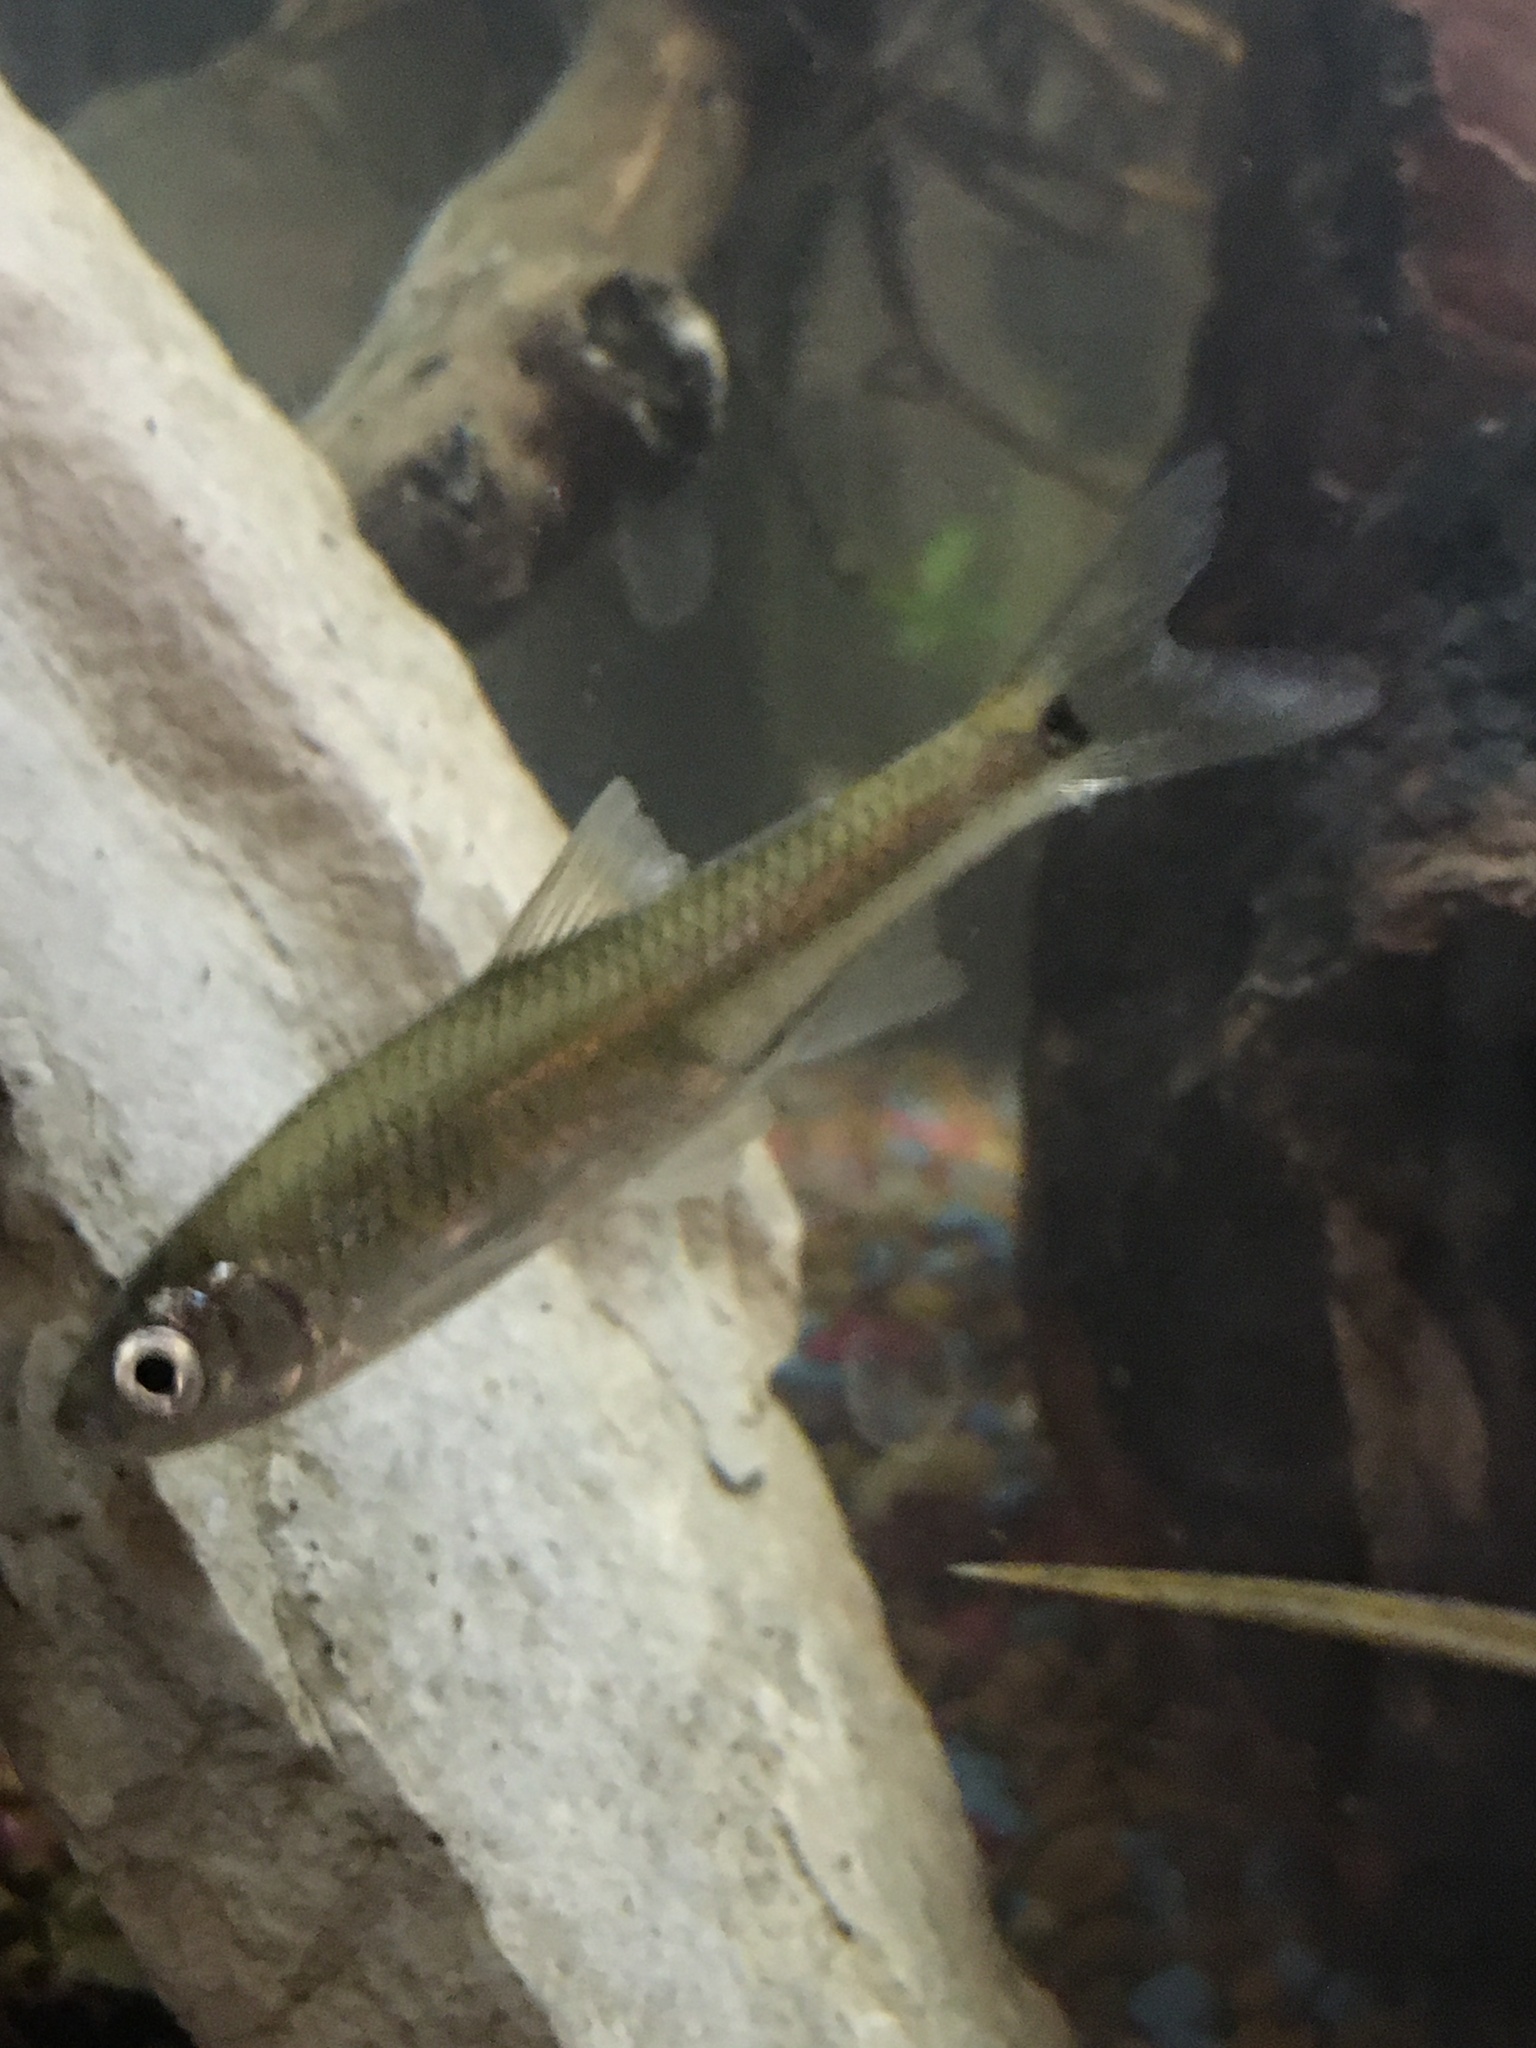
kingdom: Animalia
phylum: Chordata
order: Cypriniformes
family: Cyprinidae
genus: Cyprinella
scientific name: Cyprinella venusta
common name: Blacktail shiner
